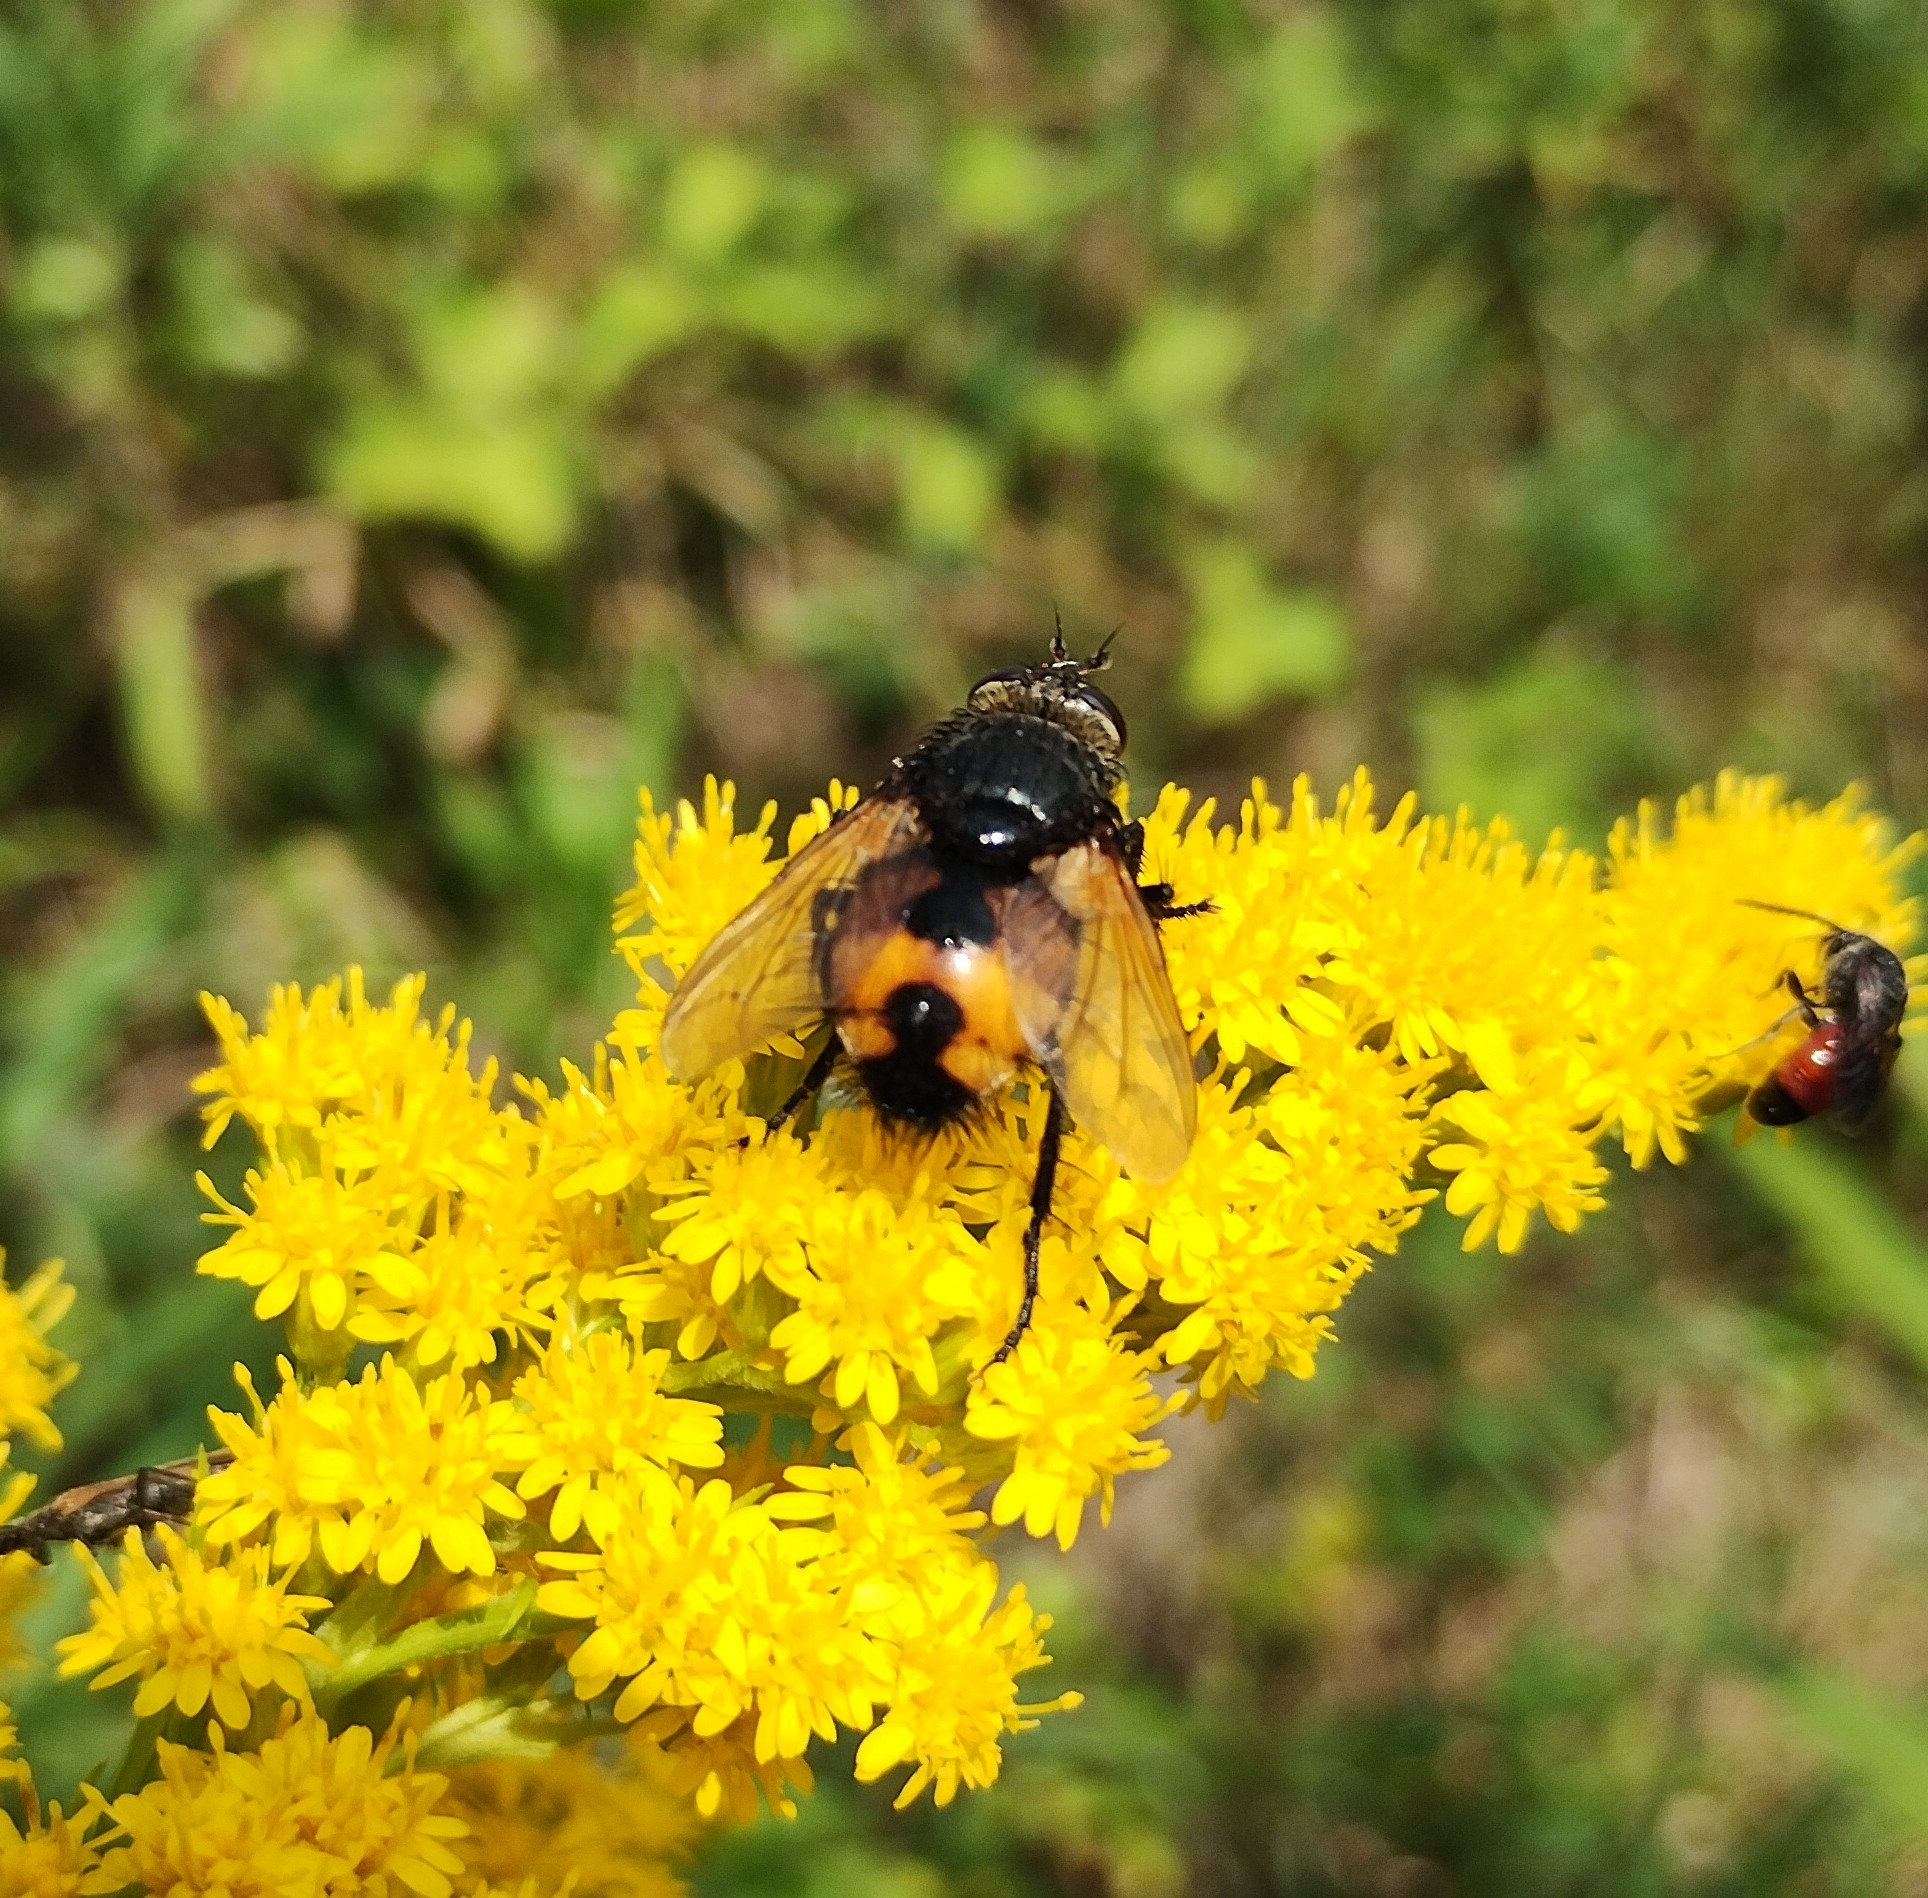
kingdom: Animalia
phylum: Arthropoda
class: Insecta
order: Diptera
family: Tachinidae
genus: Nowickia
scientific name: Nowickia ferox
